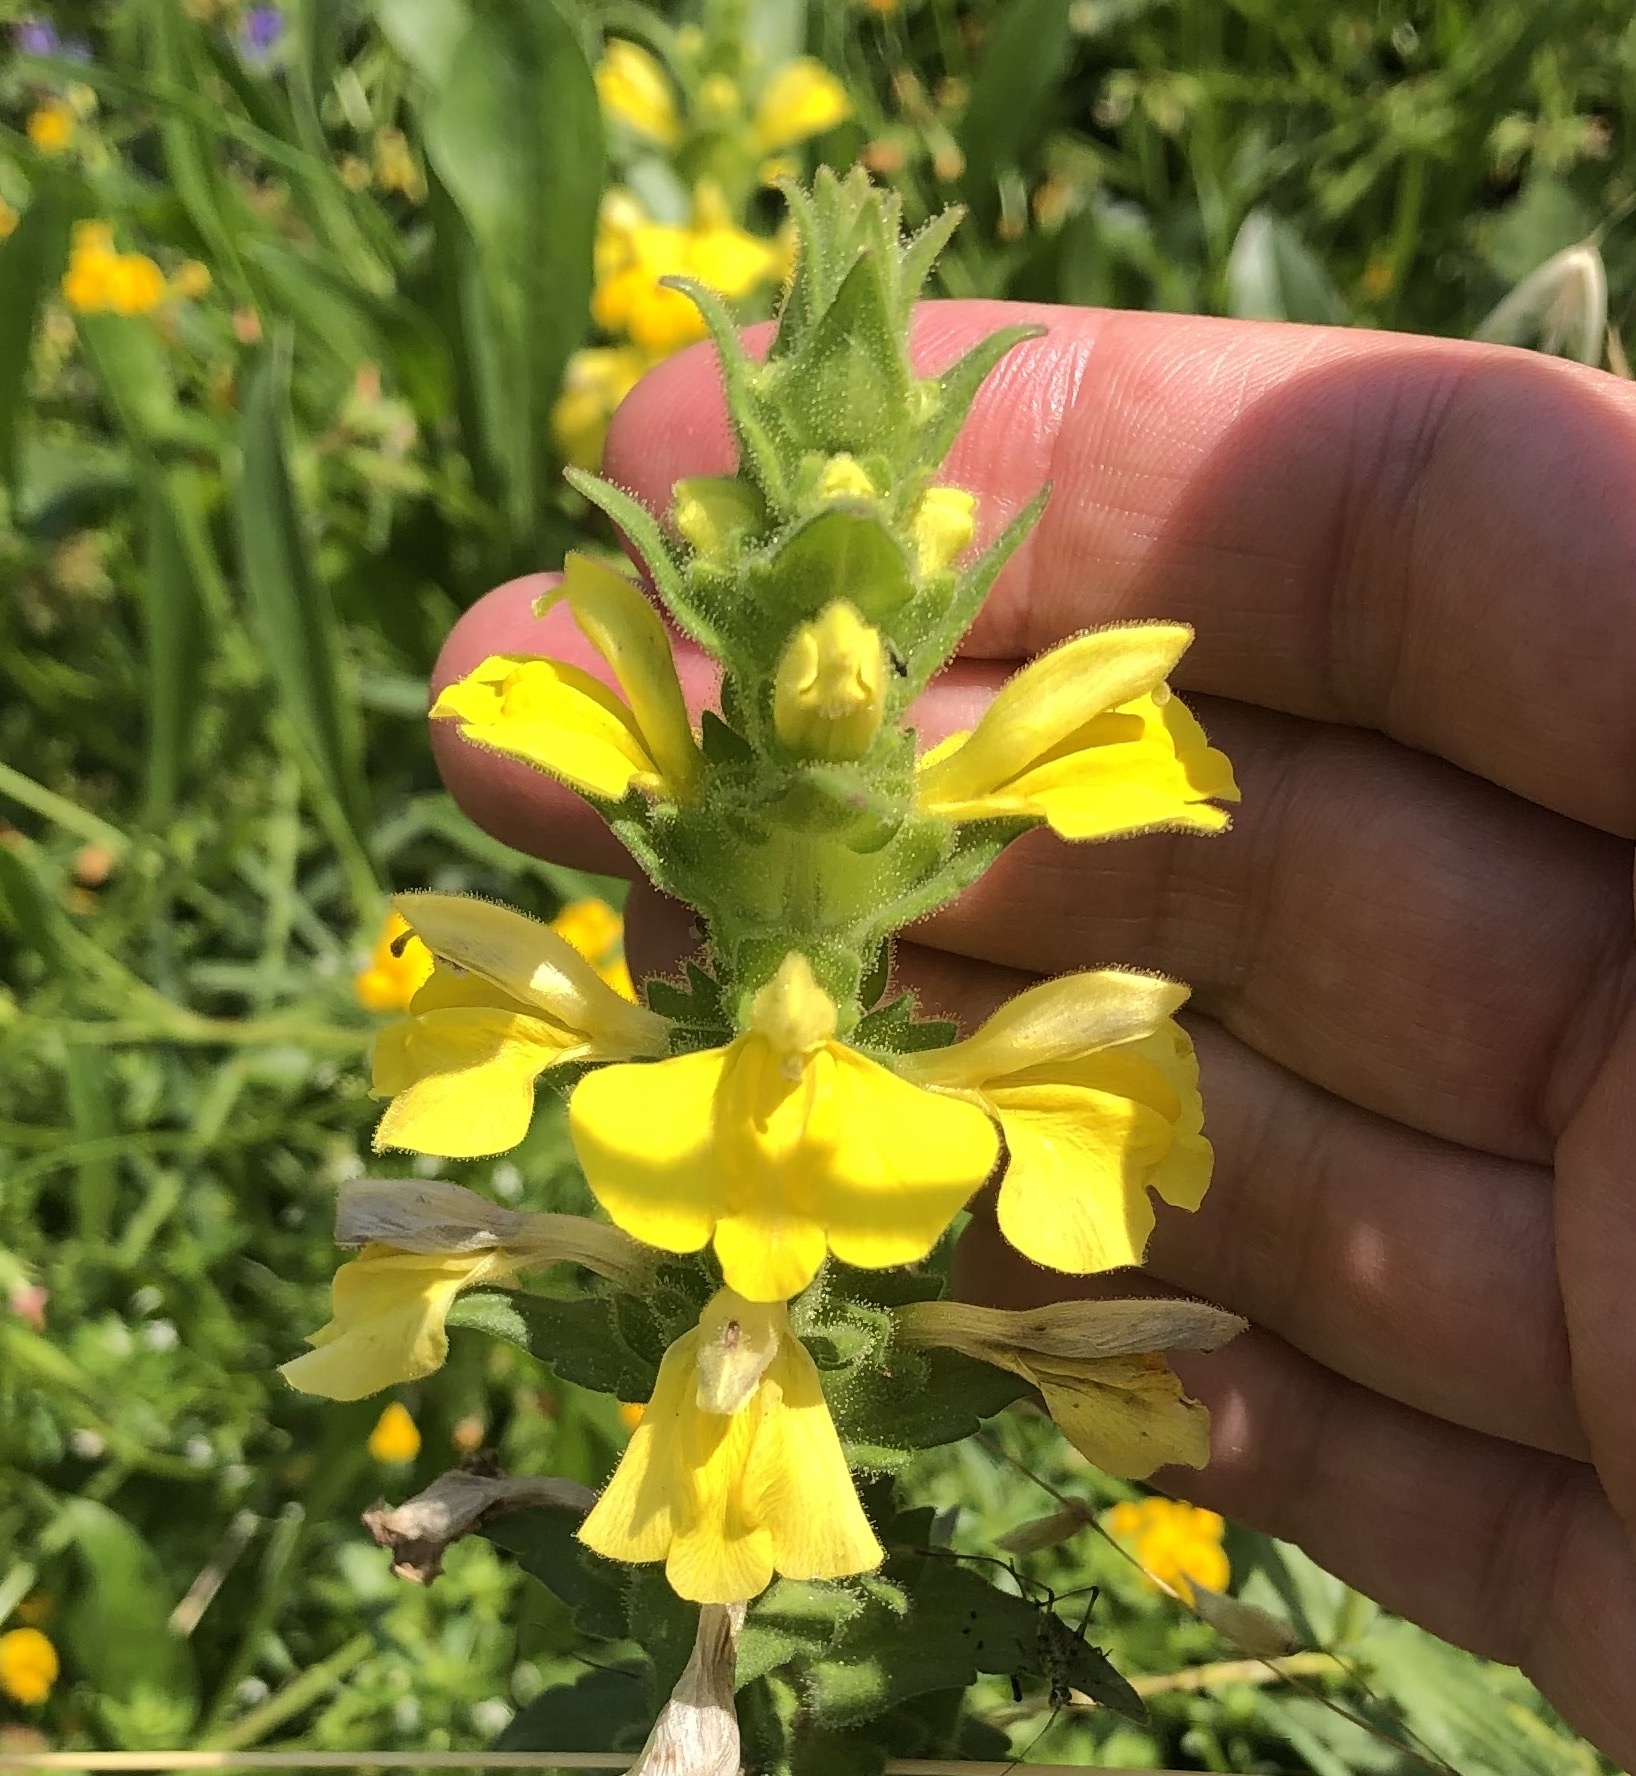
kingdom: Plantae
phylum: Tracheophyta
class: Magnoliopsida
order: Lamiales
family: Orobanchaceae
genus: Bellardia
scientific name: Bellardia trixago
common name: Mediterranean lineseed
